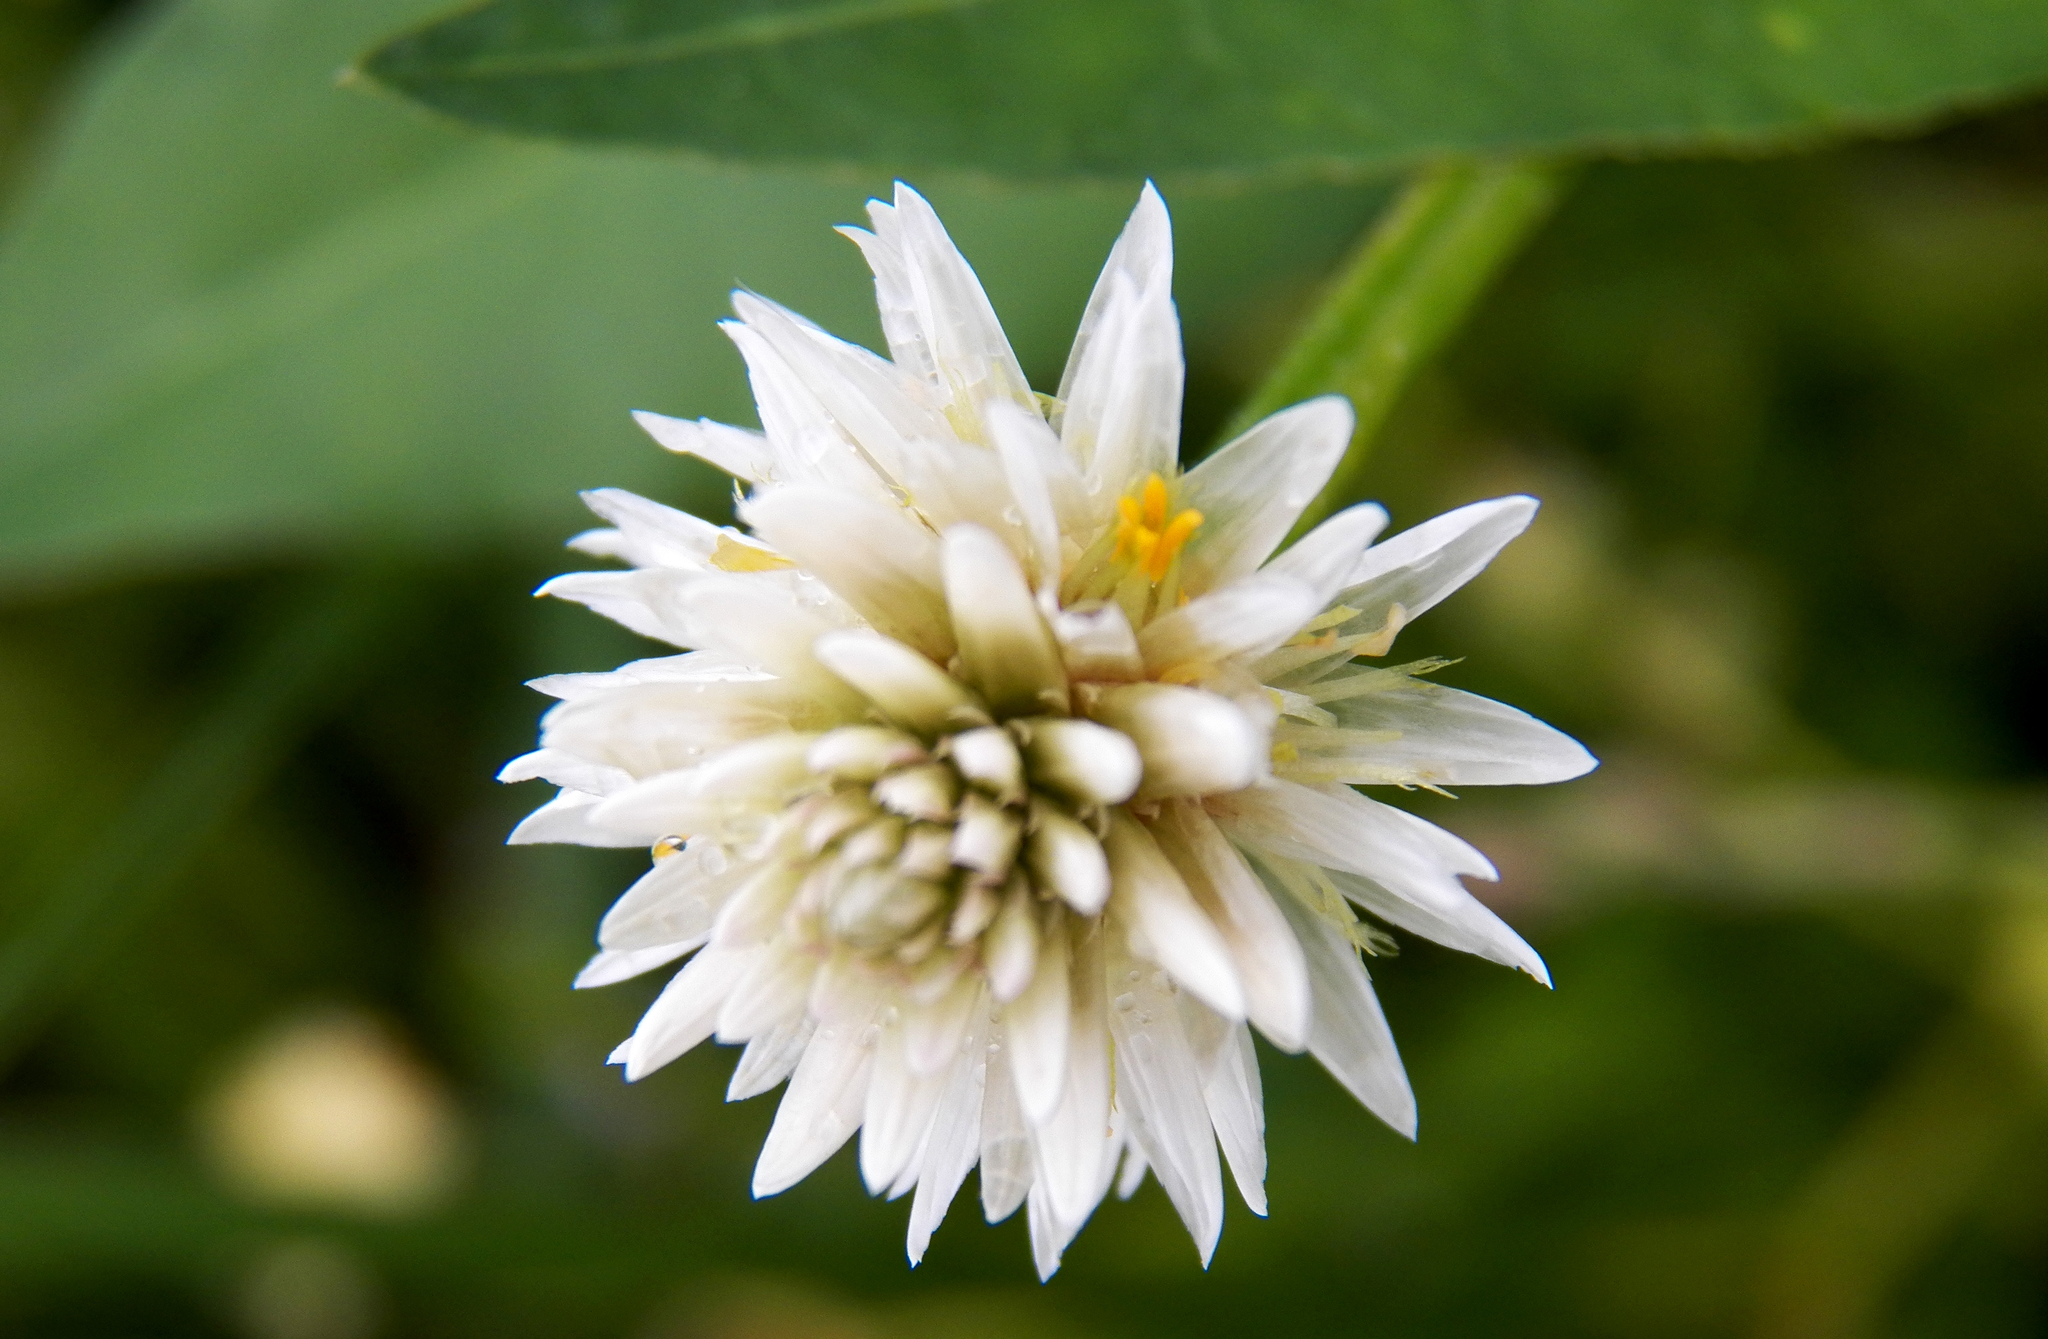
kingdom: Plantae
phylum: Tracheophyta
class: Magnoliopsida
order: Caryophyllales
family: Amaranthaceae
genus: Alternanthera
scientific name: Alternanthera philoxeroides
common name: Alligatorweed
